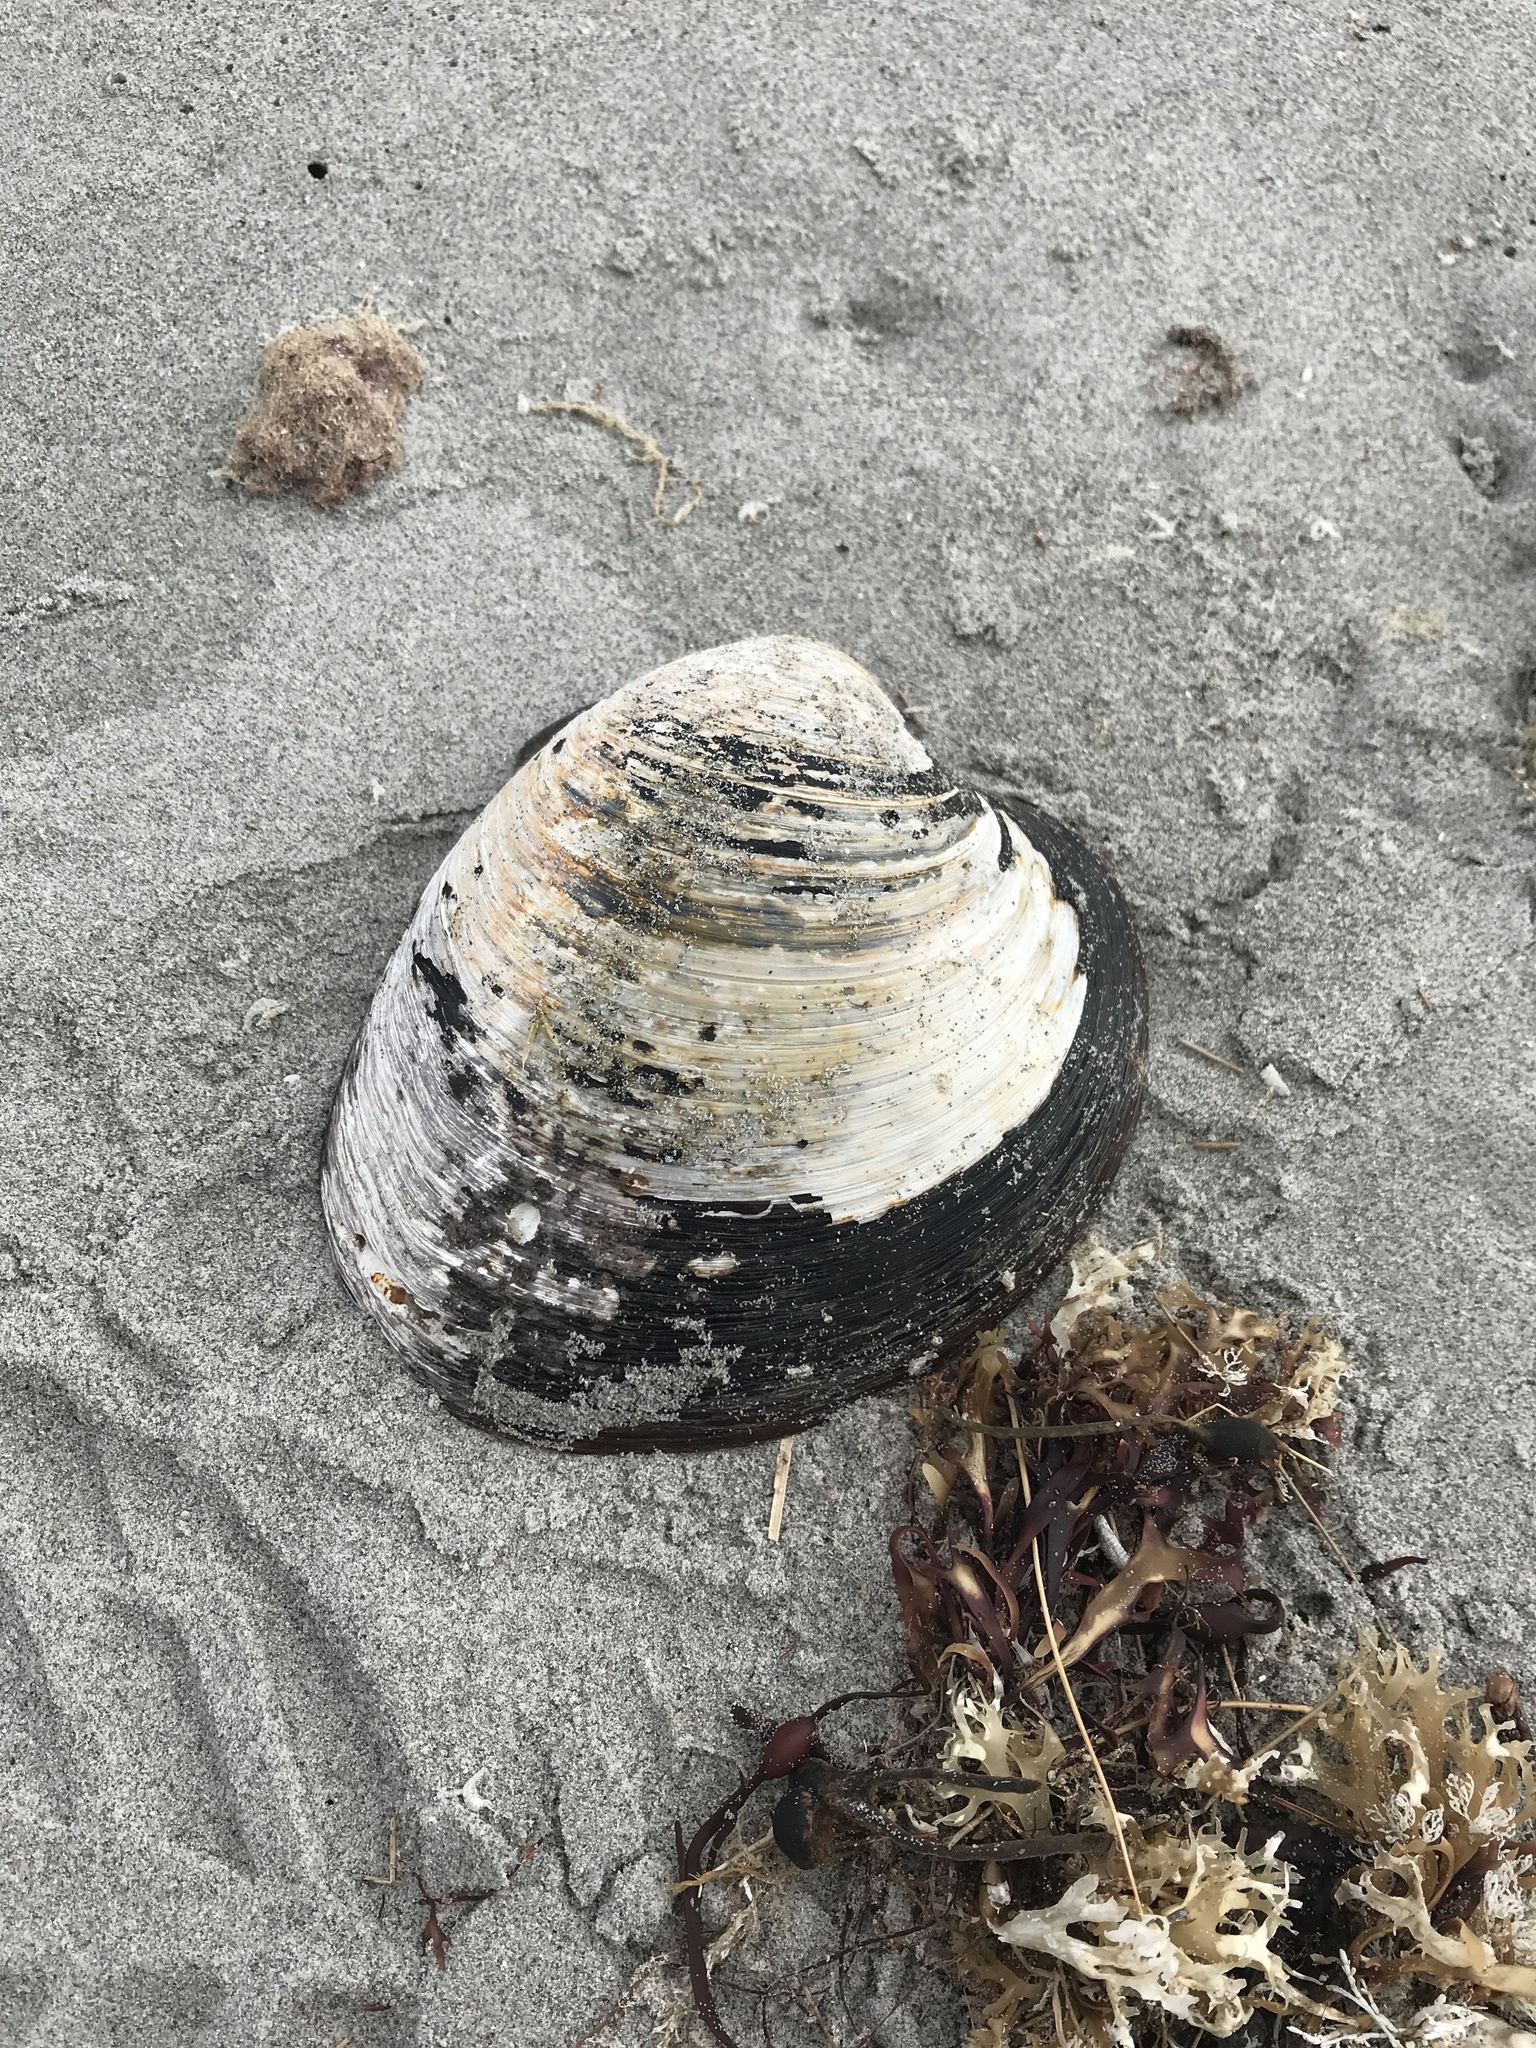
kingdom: Animalia
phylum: Mollusca
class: Bivalvia
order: Venerida
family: Arcticidae
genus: Arctica
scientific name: Arctica islandica
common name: Icelandic cyprine
